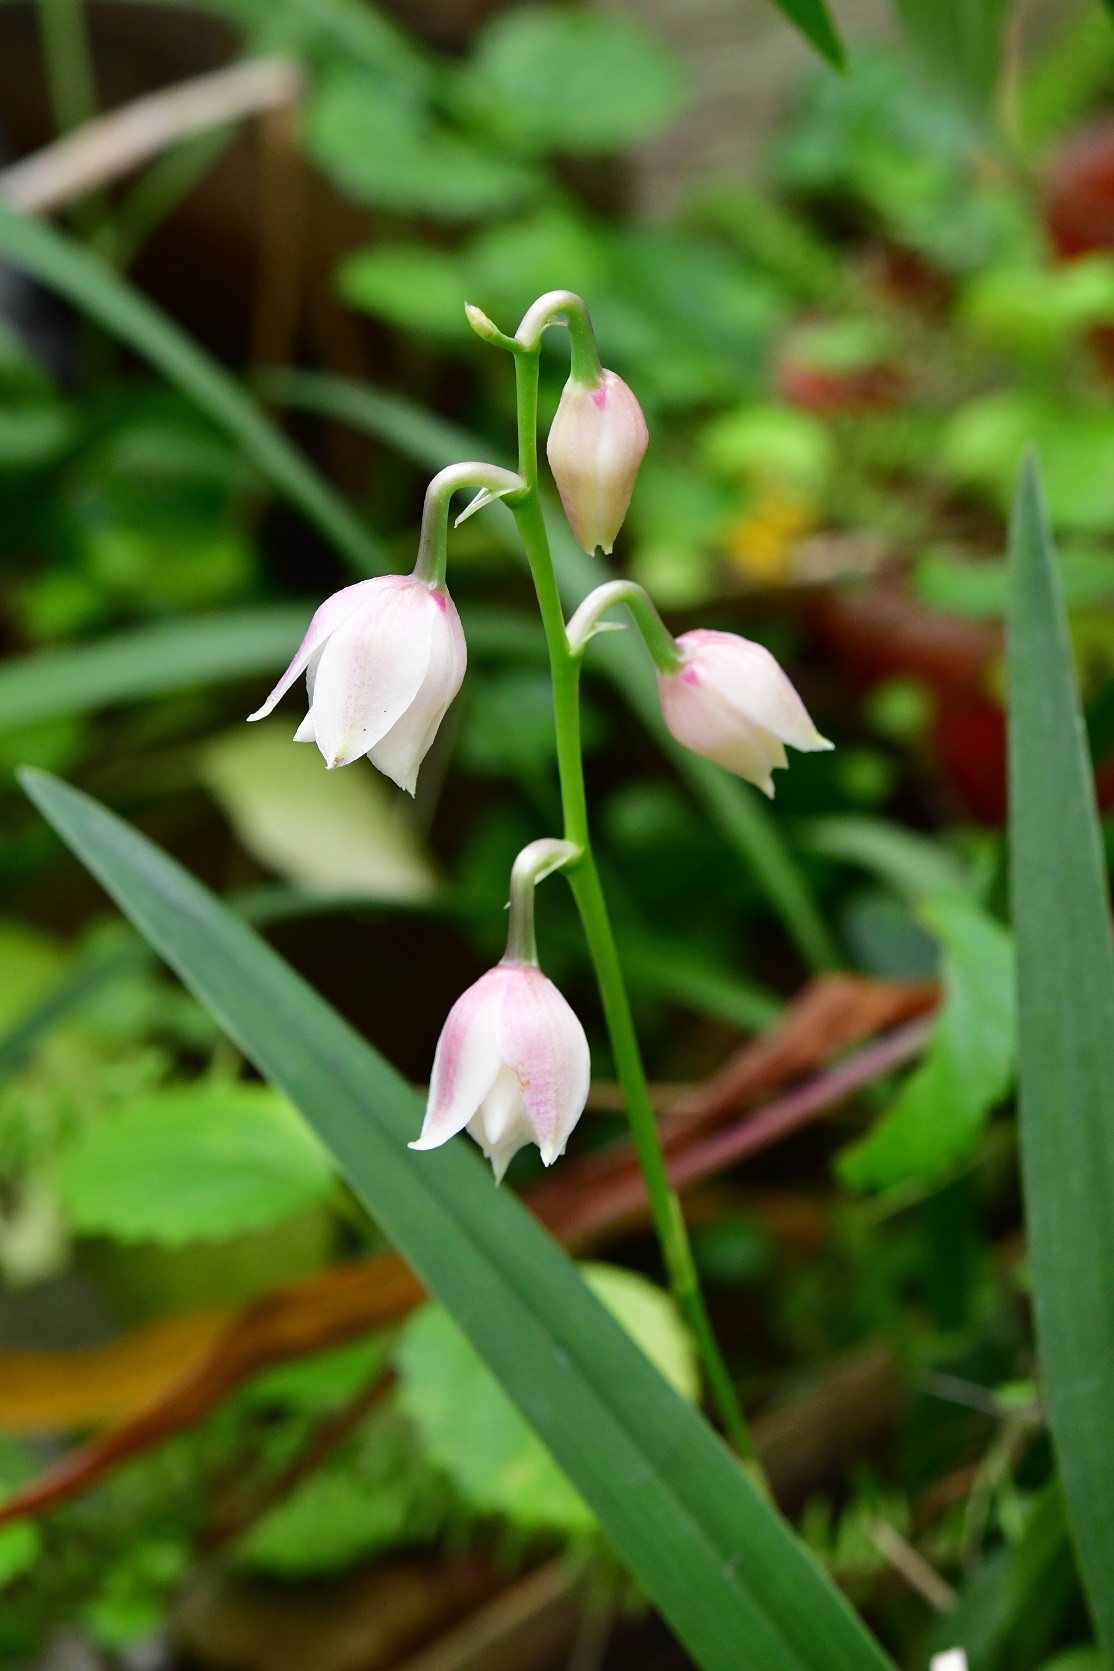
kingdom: Plantae
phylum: Tracheophyta
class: Liliopsida
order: Asparagales
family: Orchidaceae
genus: Cuitlauzina
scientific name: Cuitlauzina pulchella
